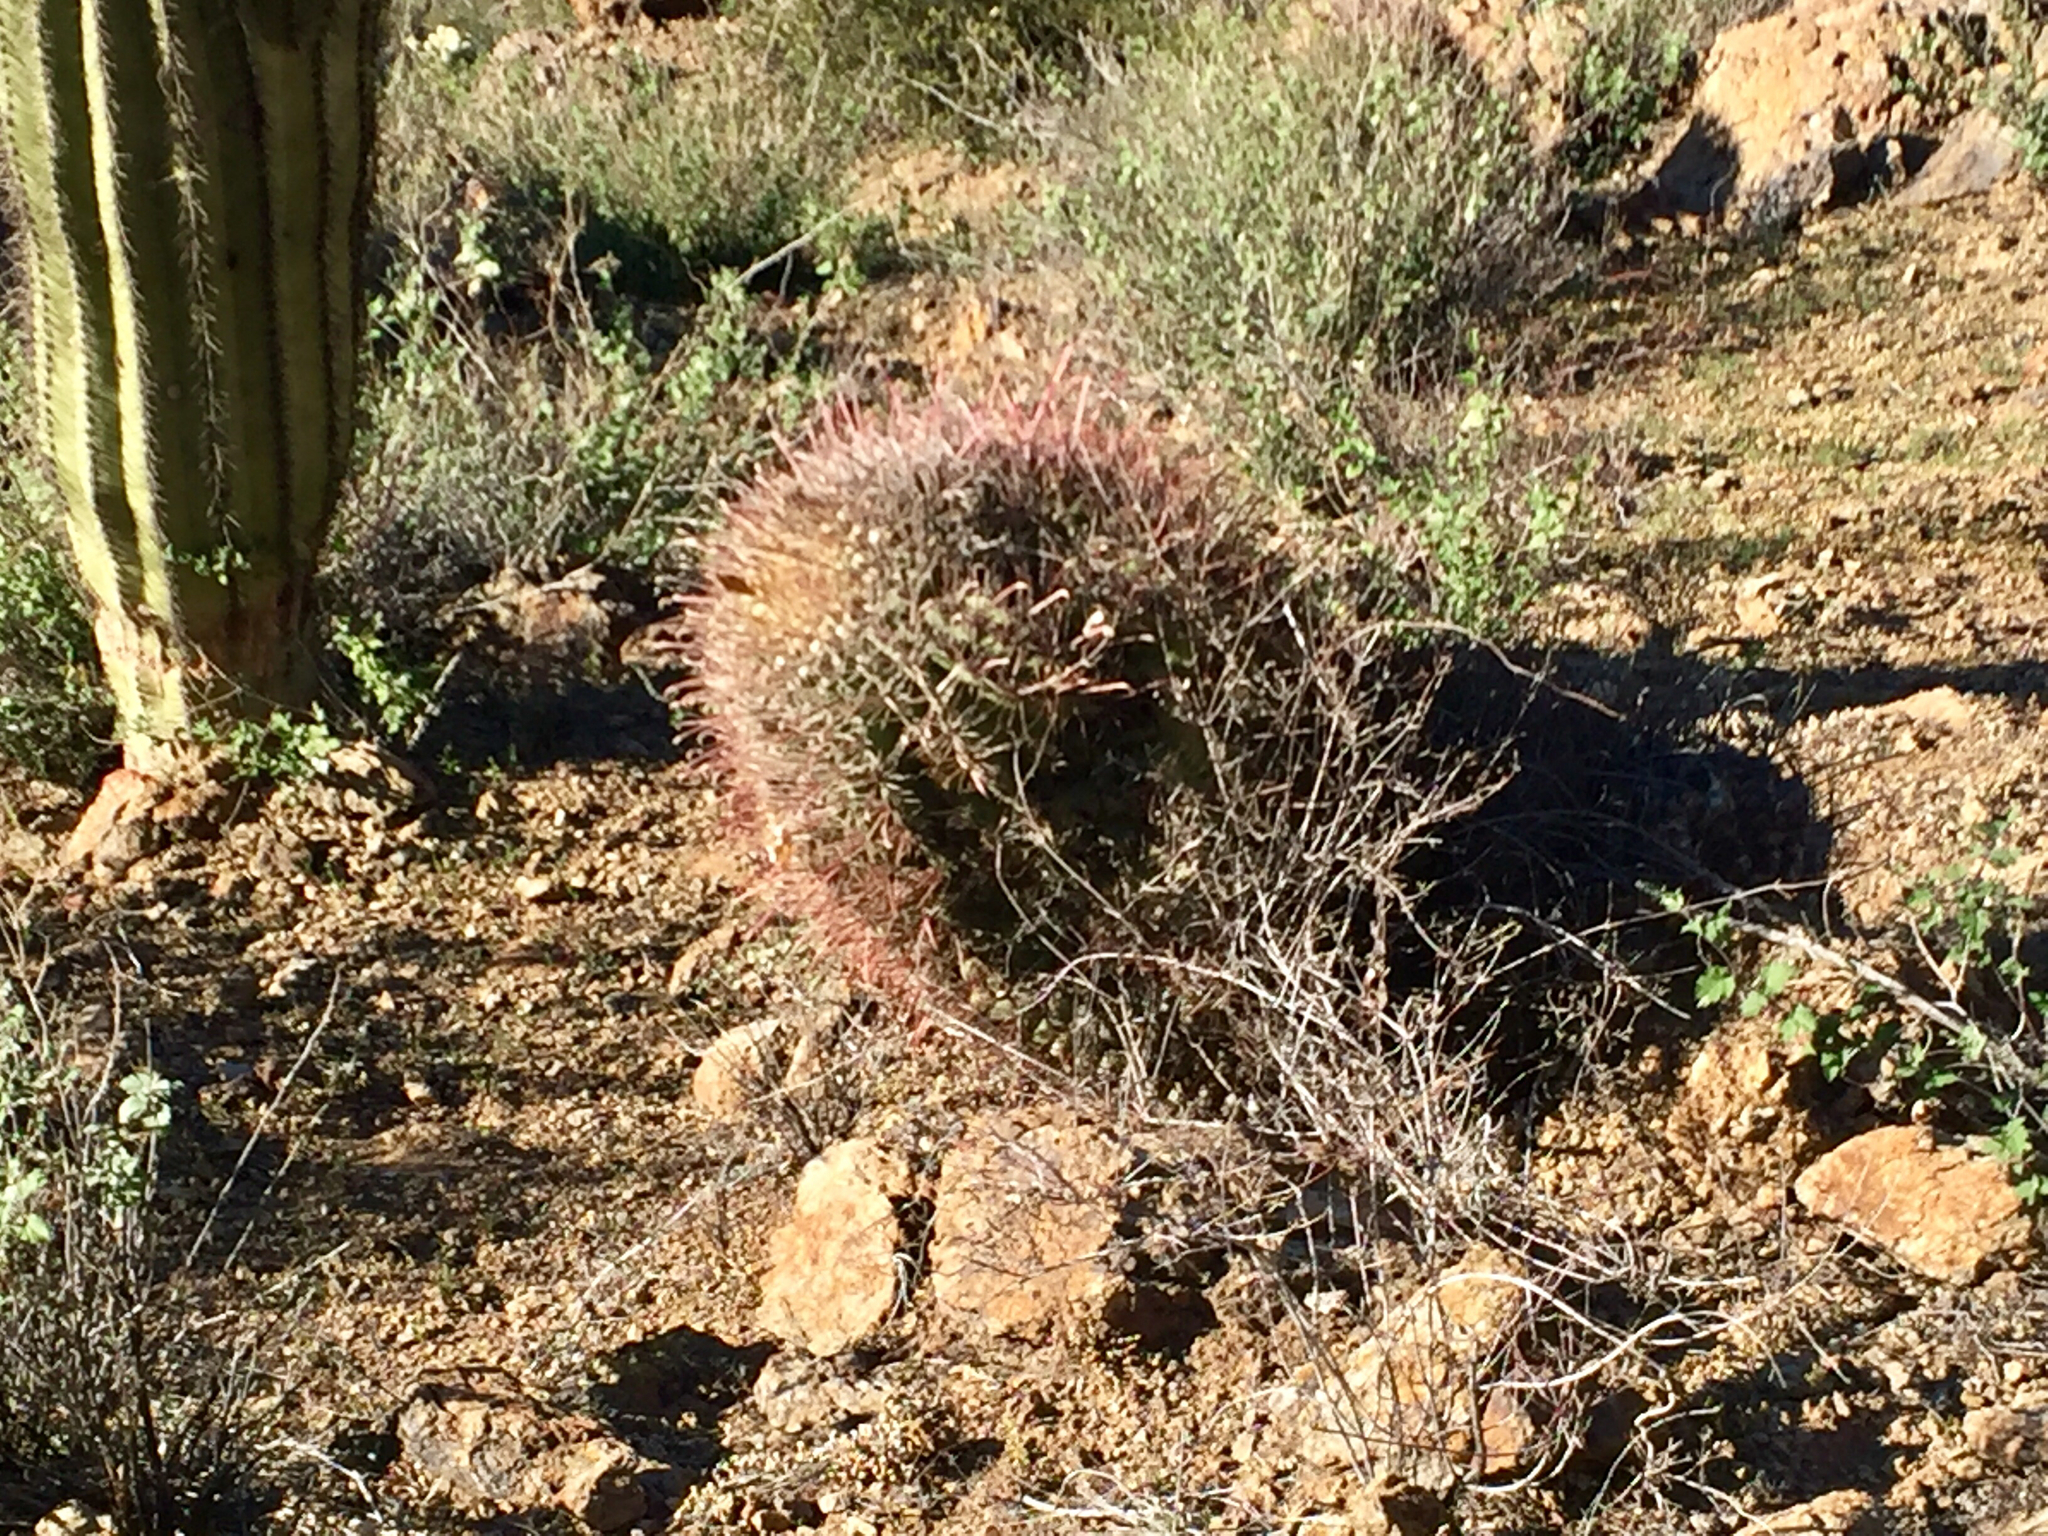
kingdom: Plantae
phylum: Tracheophyta
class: Magnoliopsida
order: Caryophyllales
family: Cactaceae
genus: Ferocactus
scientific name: Ferocactus wislizeni
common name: Candy barrel cactus
